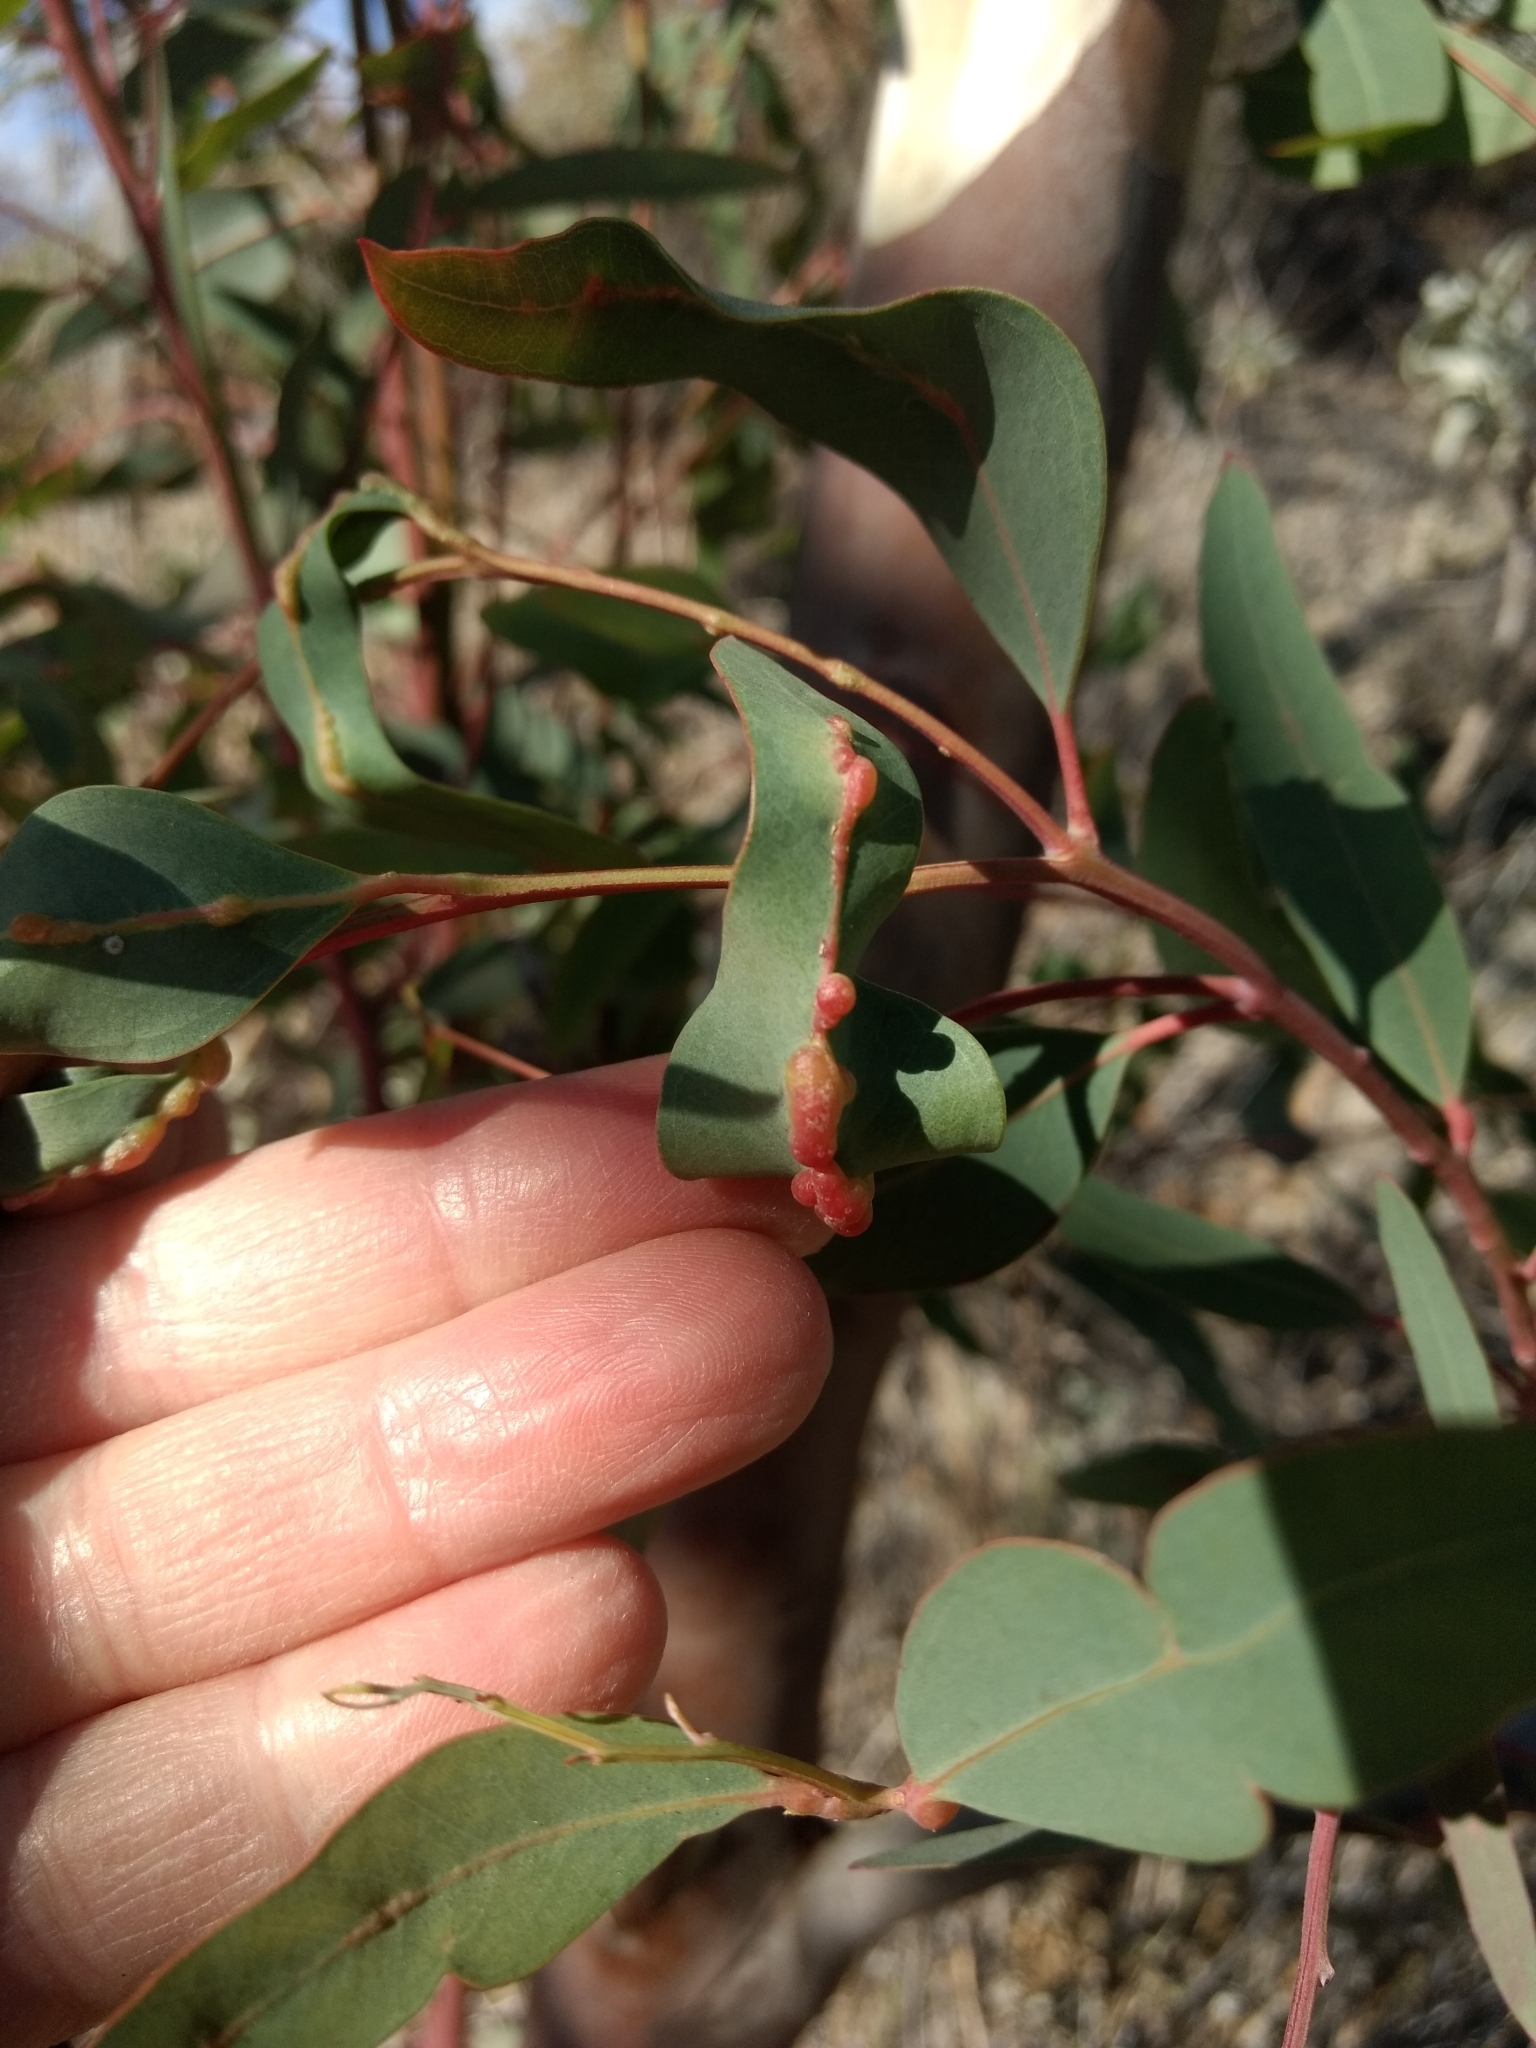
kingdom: Animalia
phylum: Arthropoda
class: Insecta
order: Hymenoptera
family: Eulophidae
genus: Leptocybe
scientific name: Leptocybe invasa
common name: Gall wasp
